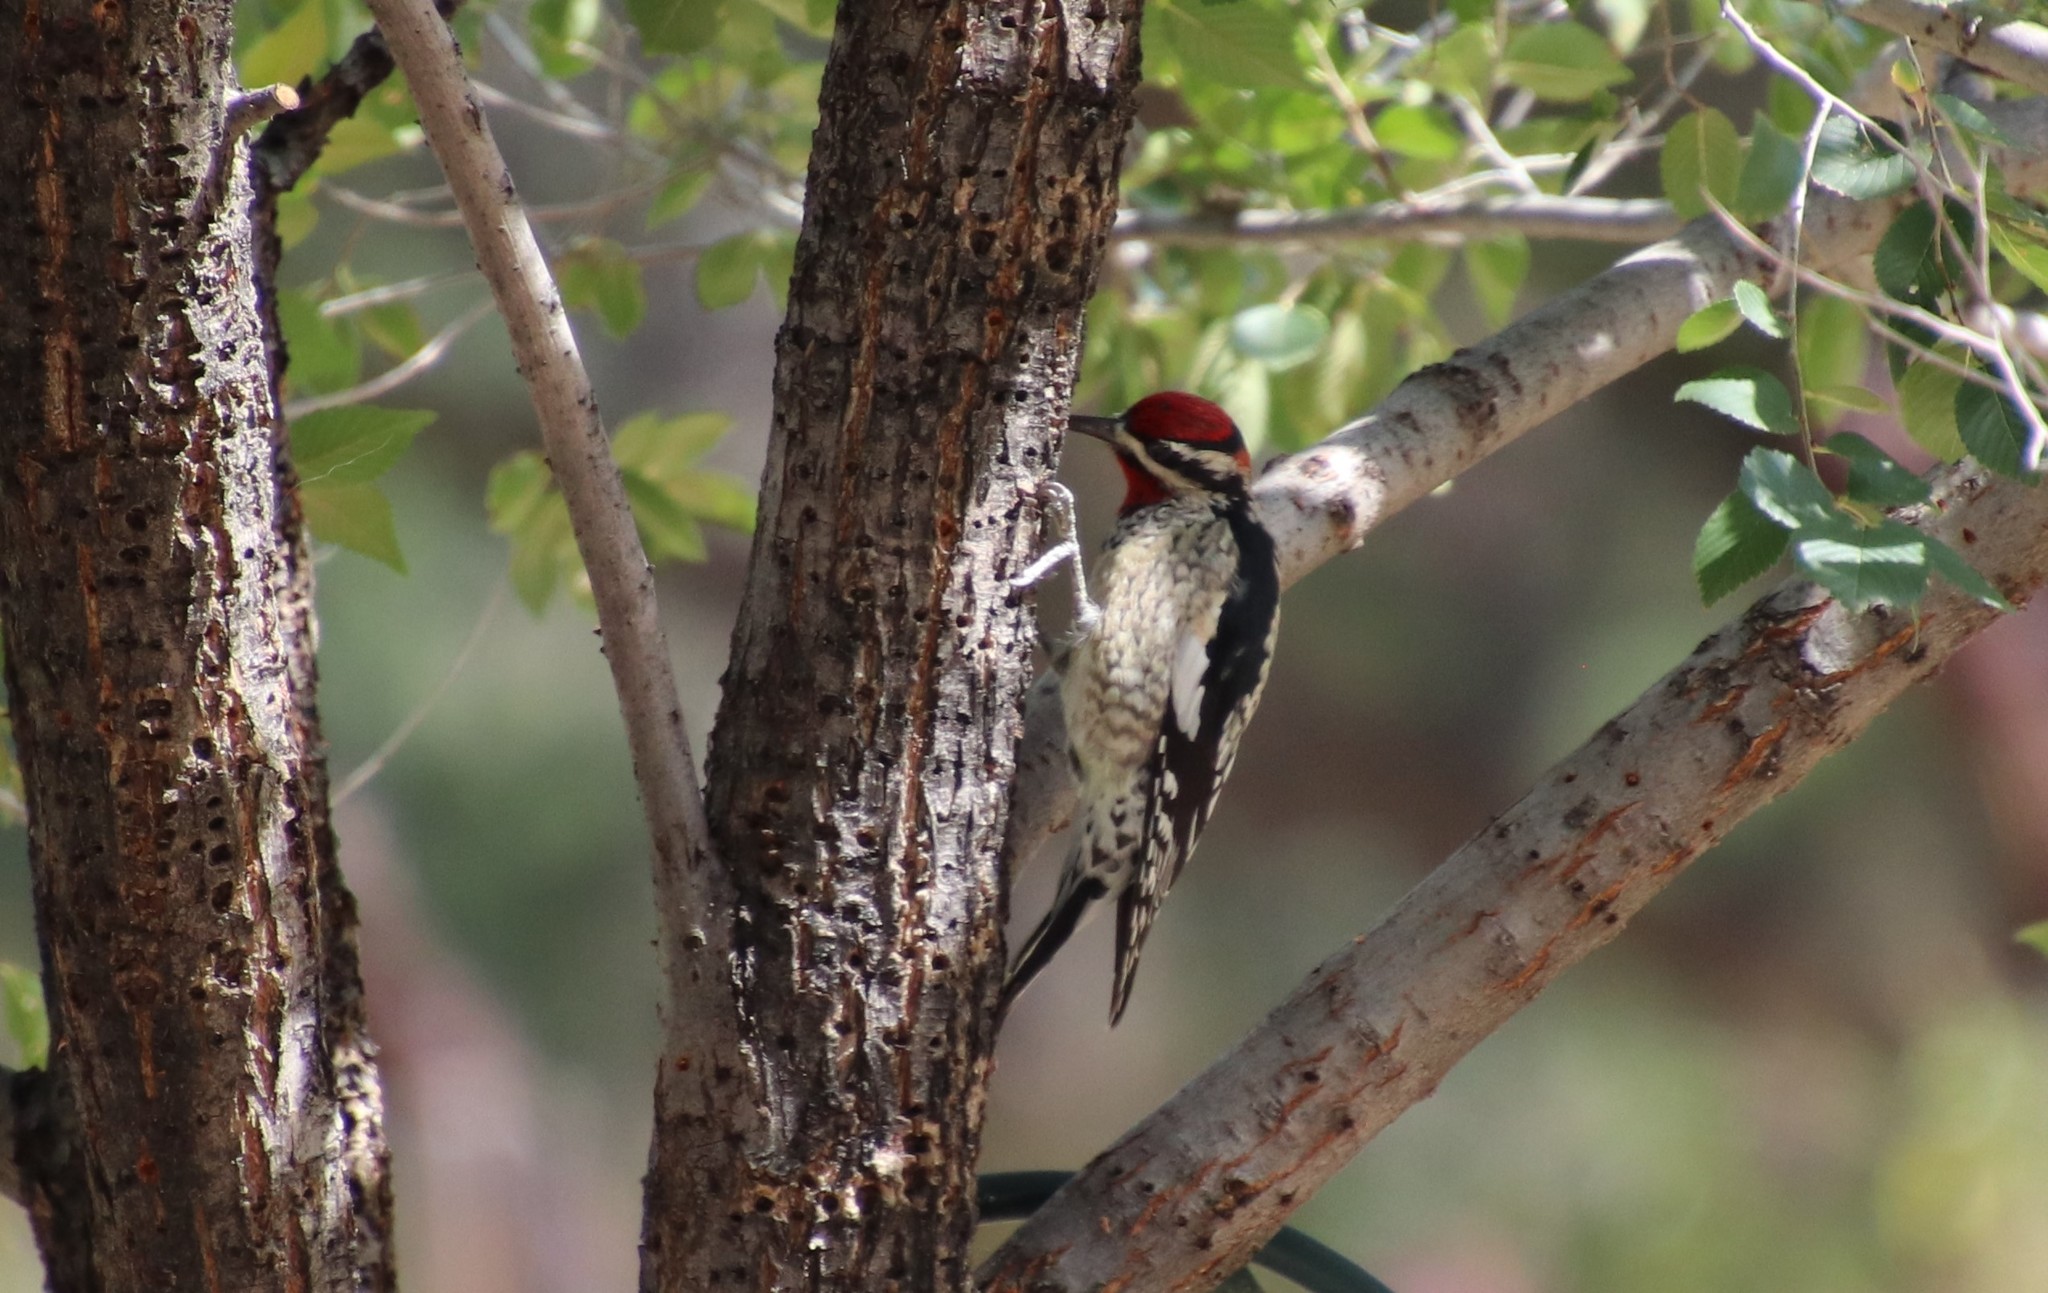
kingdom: Animalia
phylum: Chordata
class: Aves
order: Piciformes
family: Picidae
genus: Sphyrapicus
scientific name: Sphyrapicus nuchalis
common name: Red-naped sapsucker
